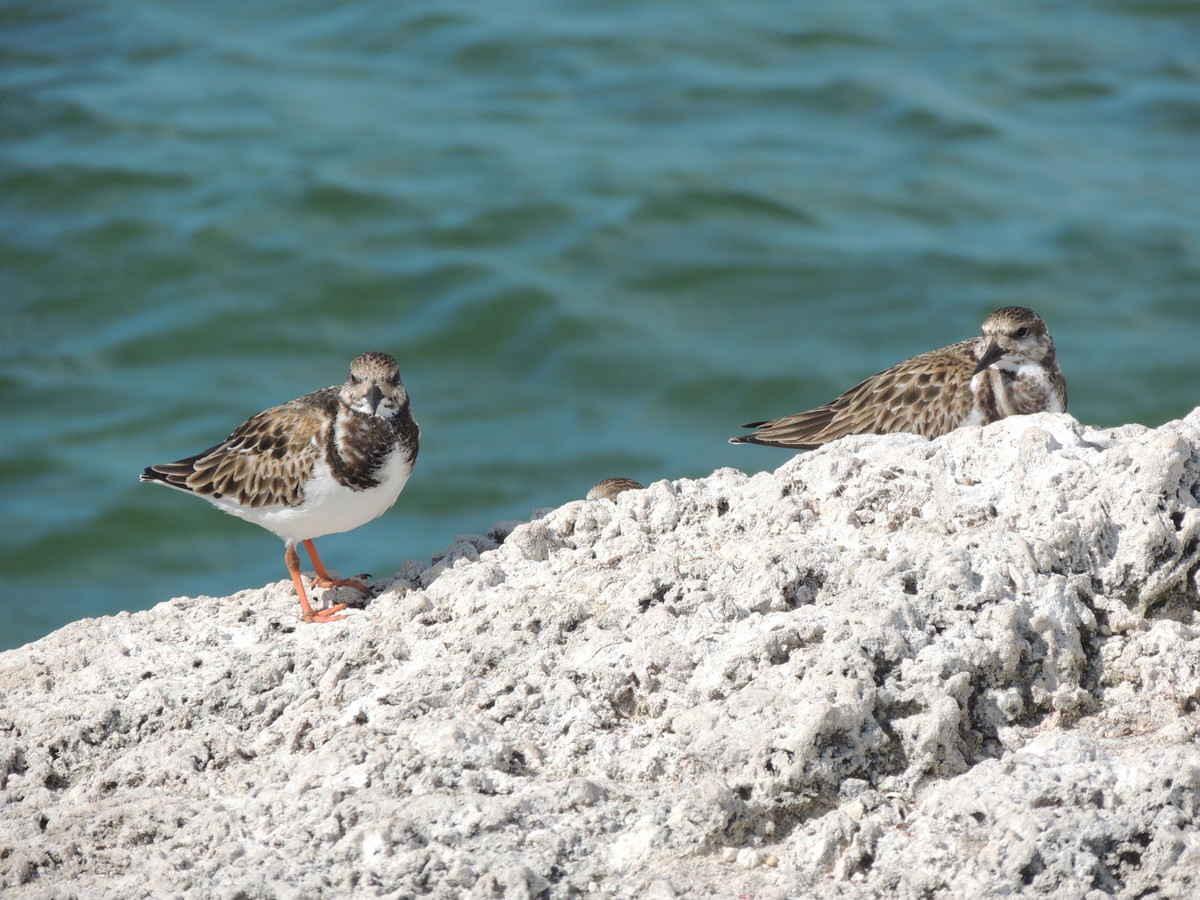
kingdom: Animalia
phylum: Chordata
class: Aves
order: Charadriiformes
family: Scolopacidae
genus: Arenaria
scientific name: Arenaria interpres
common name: Ruddy turnstone
